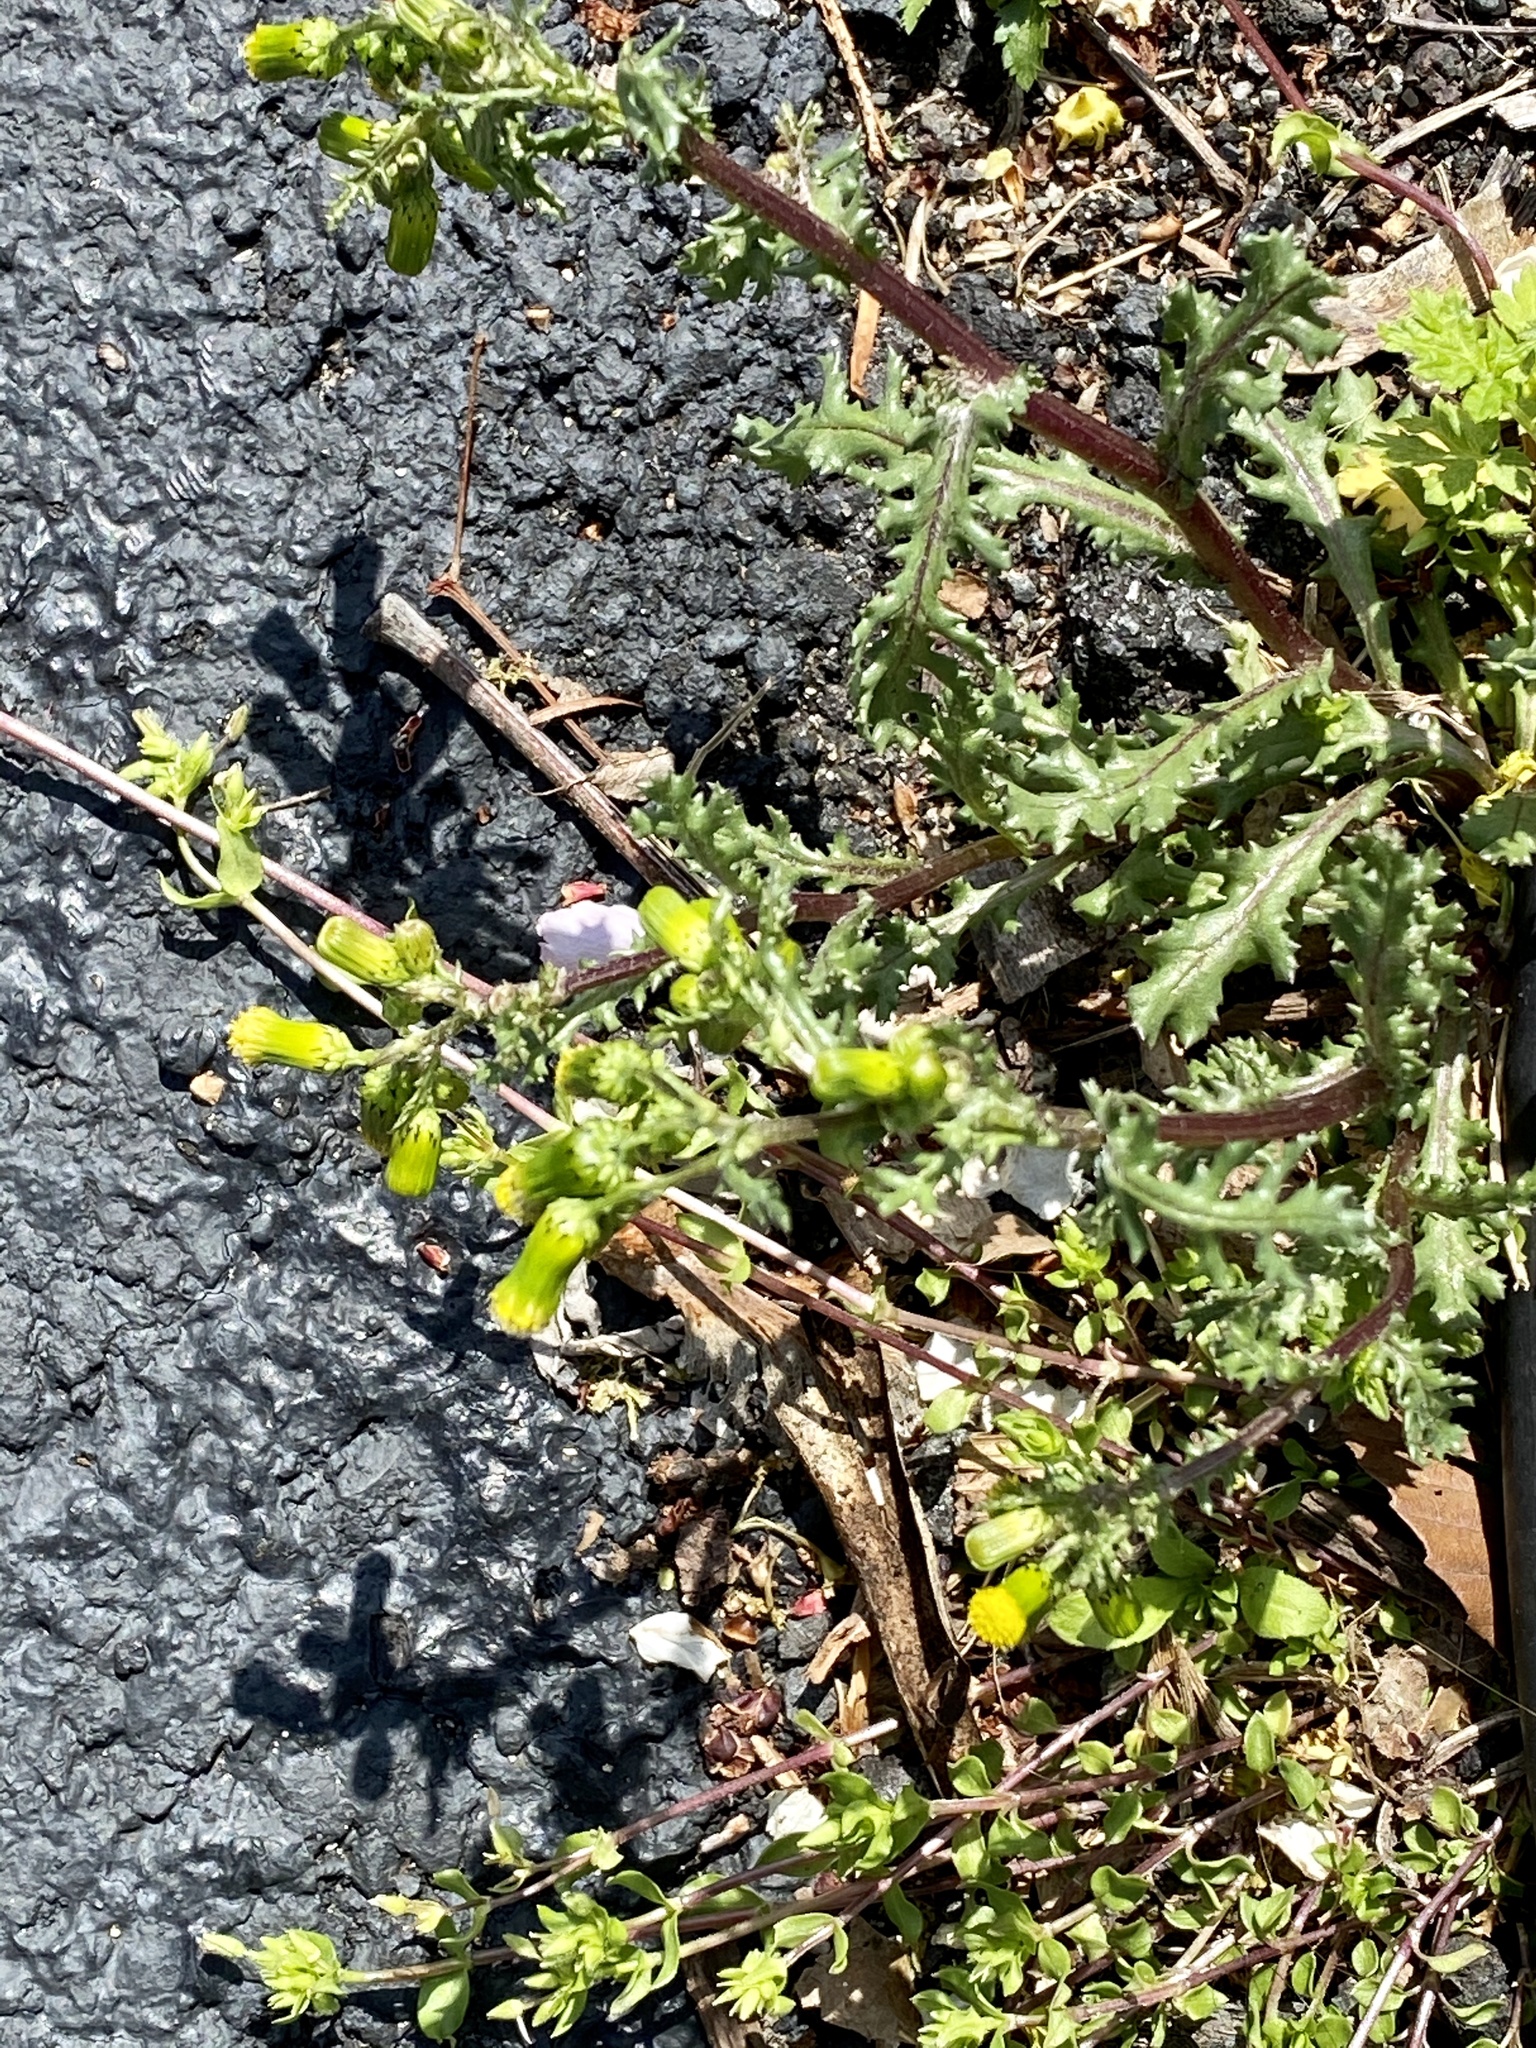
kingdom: Plantae
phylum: Tracheophyta
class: Magnoliopsida
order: Asterales
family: Asteraceae
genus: Senecio
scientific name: Senecio vulgaris
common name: Old-man-in-the-spring
